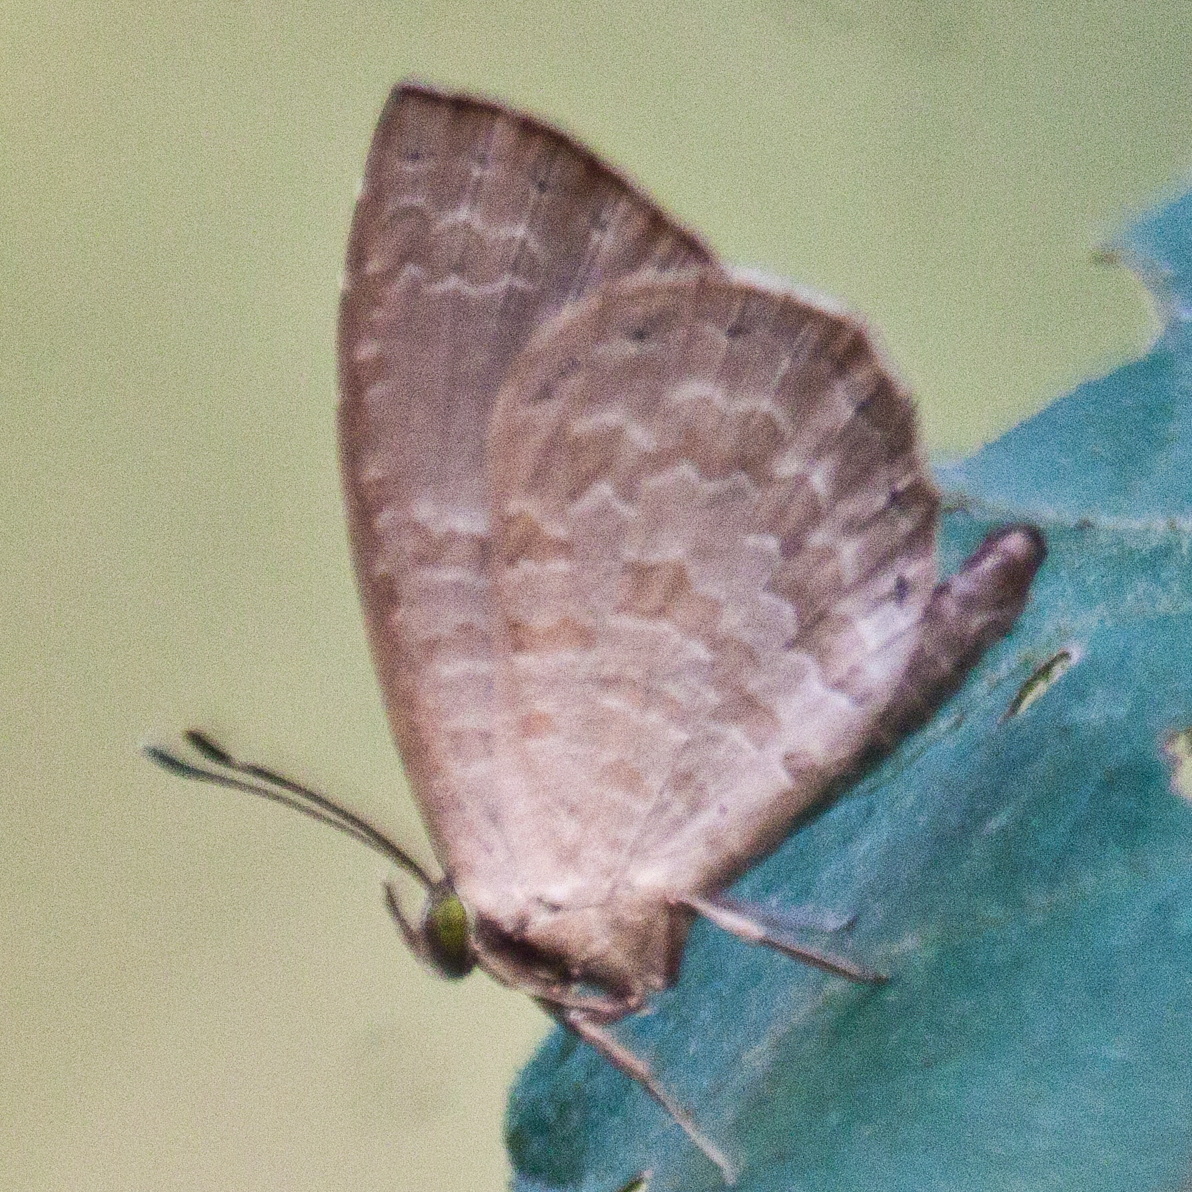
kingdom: Animalia
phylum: Arthropoda
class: Insecta
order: Lepidoptera
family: Lycaenidae
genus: Miletus
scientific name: Miletus chinensis
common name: Common brownie
